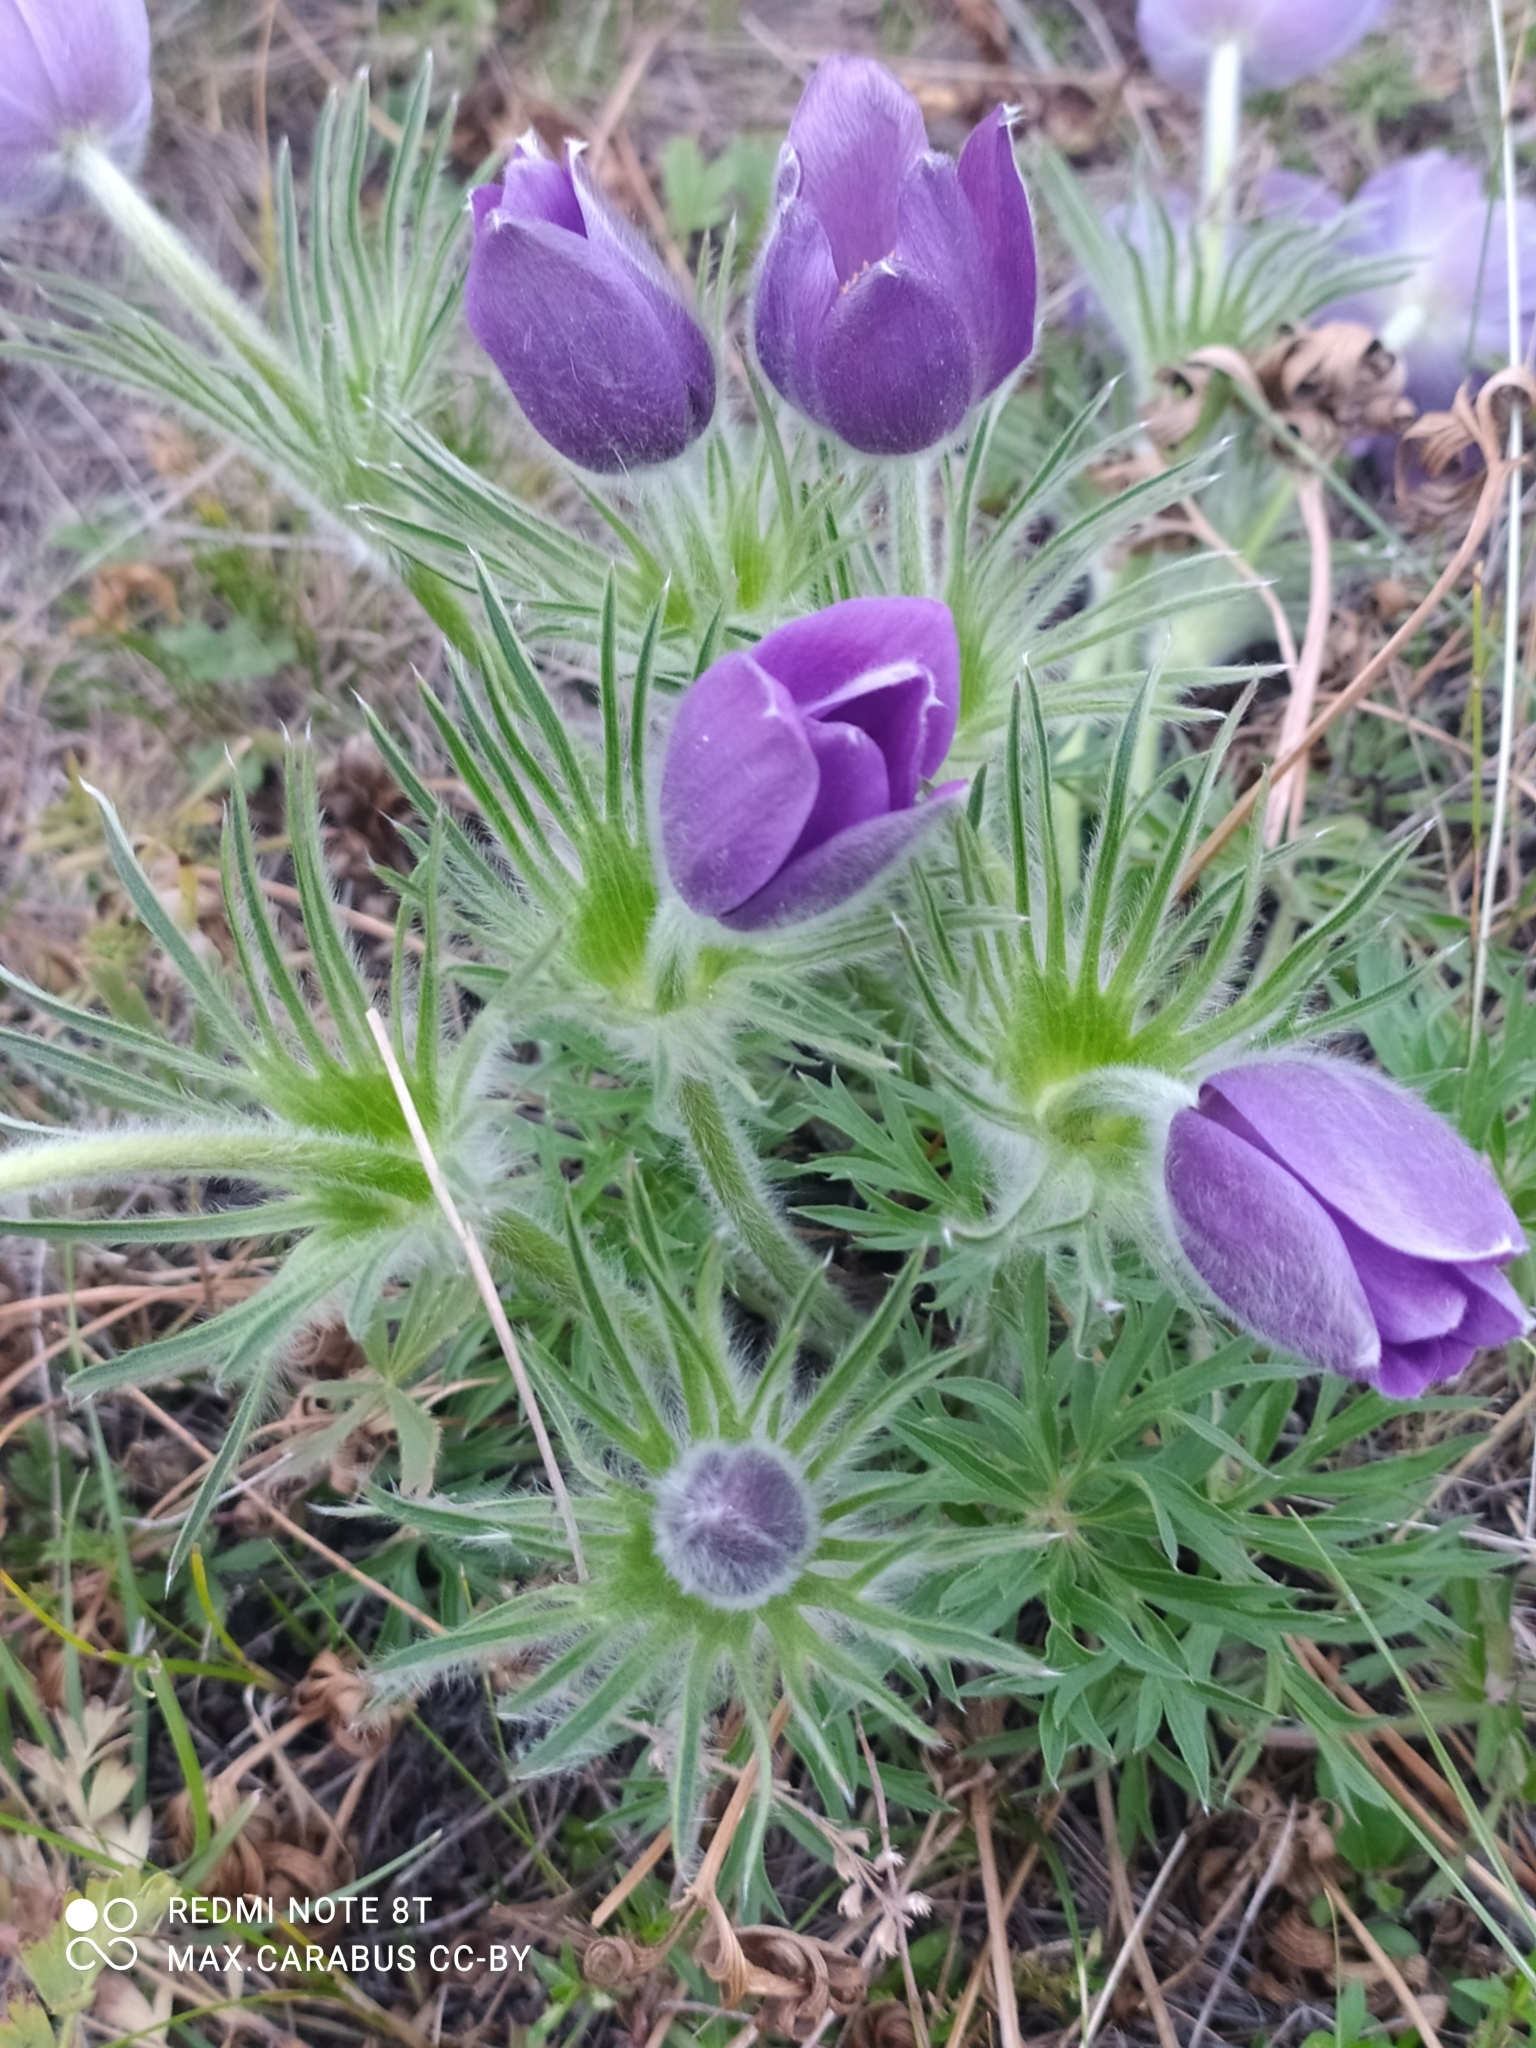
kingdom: Plantae
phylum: Tracheophyta
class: Magnoliopsida
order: Ranunculales
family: Ranunculaceae
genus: Pulsatilla
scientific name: Pulsatilla patens
